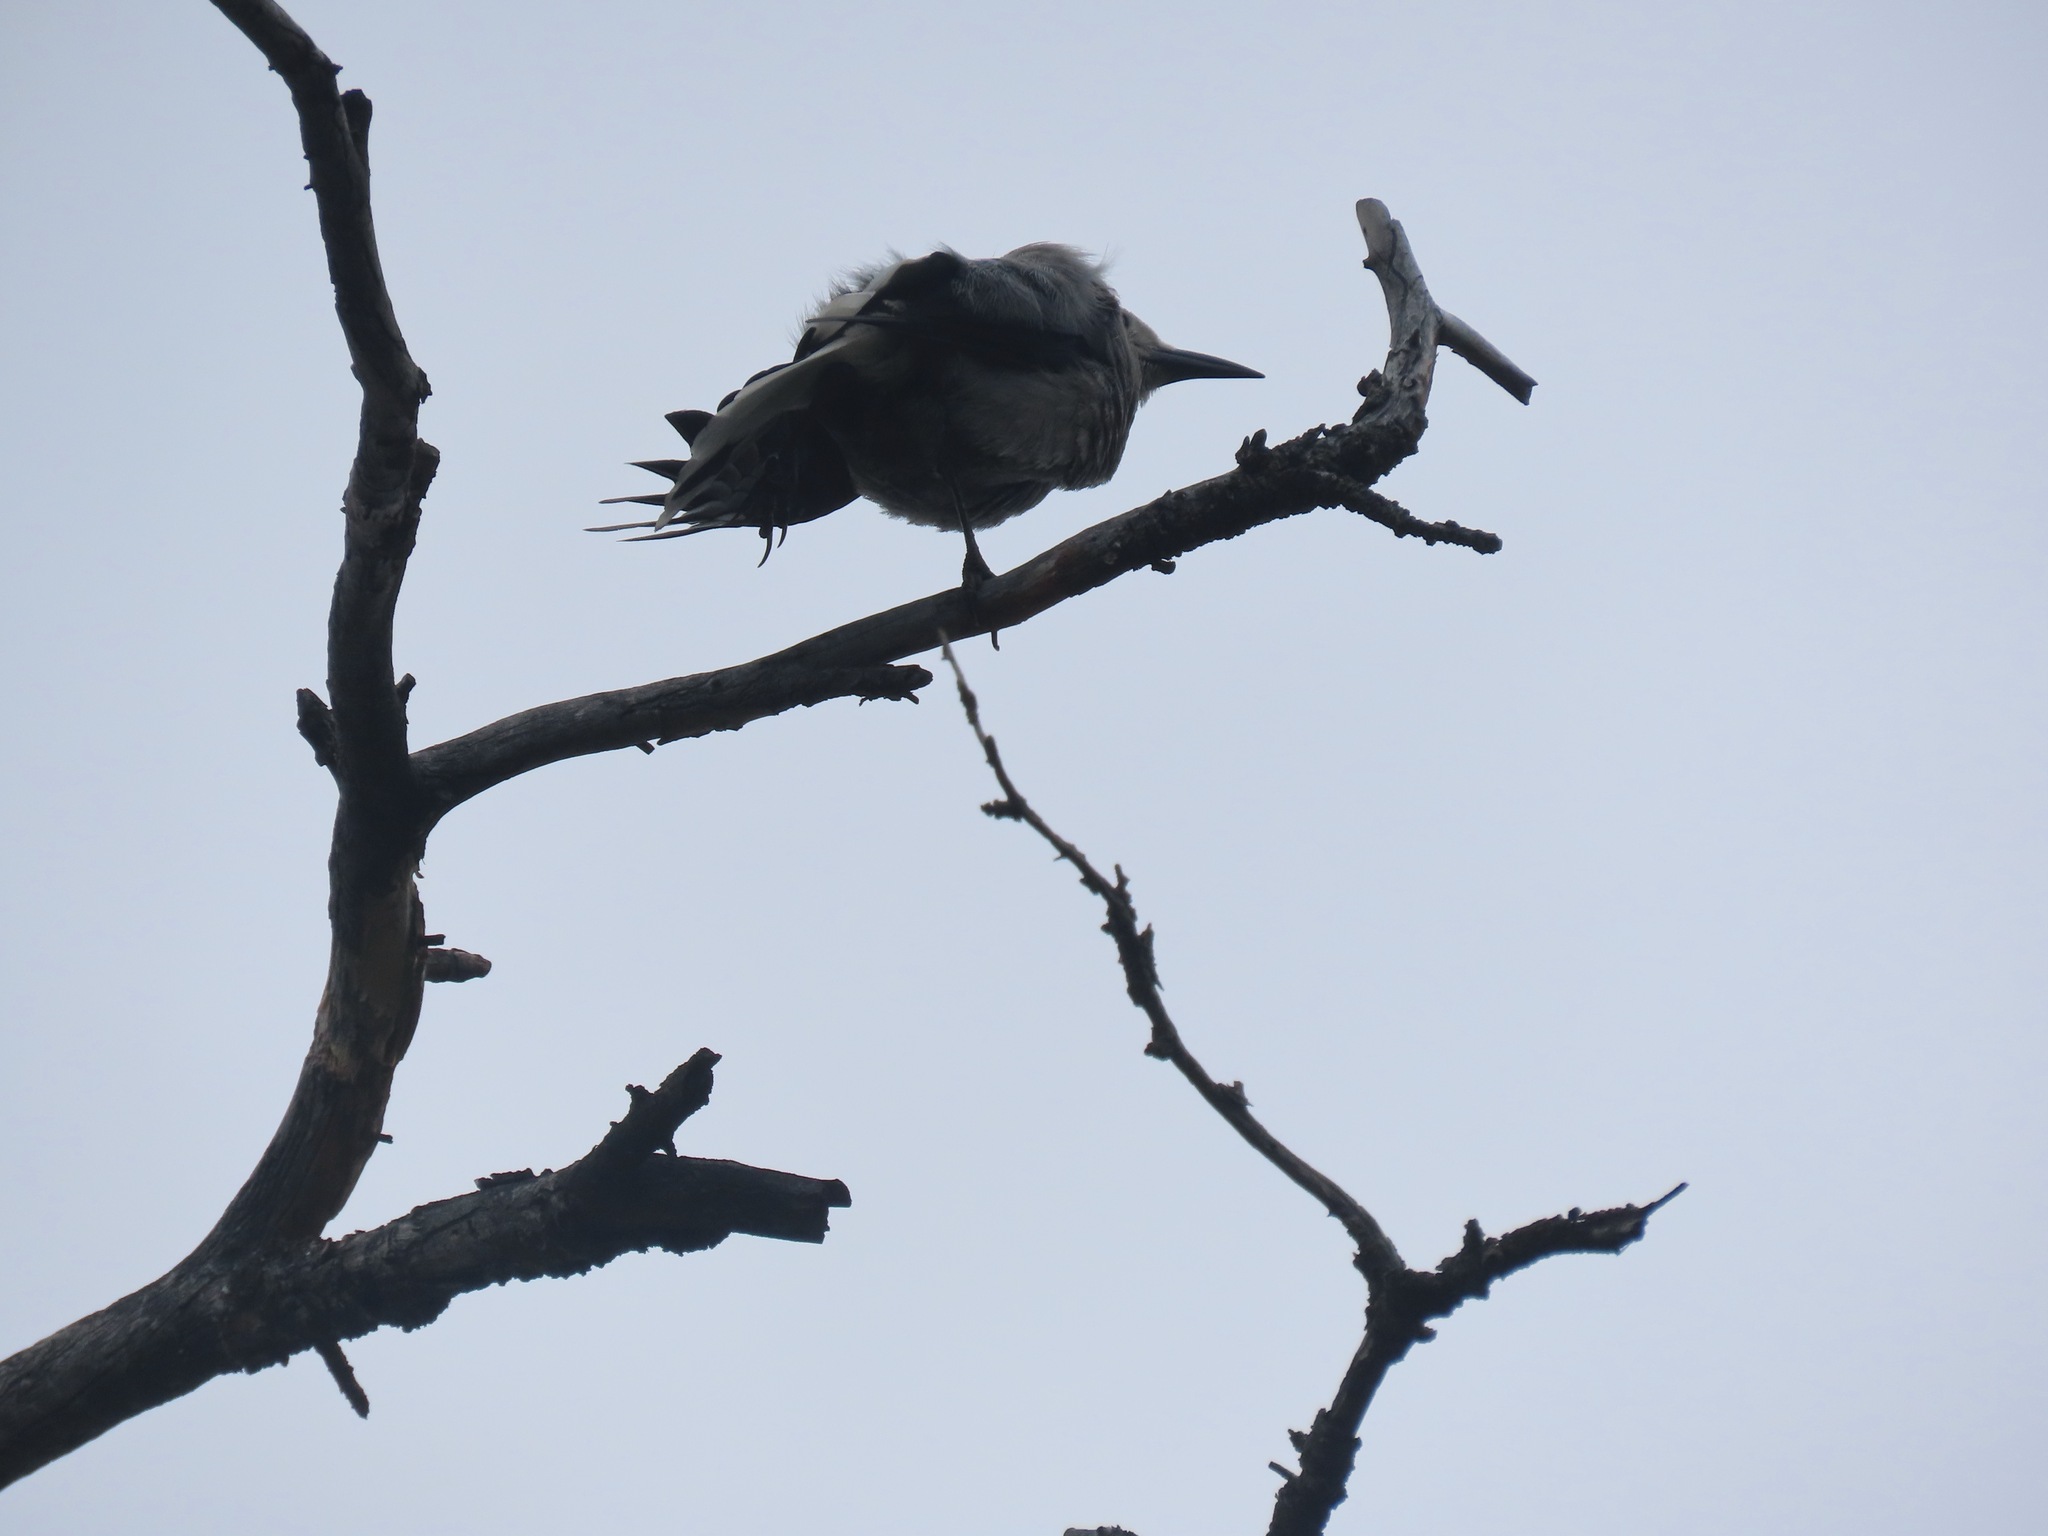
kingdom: Animalia
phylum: Chordata
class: Aves
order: Passeriformes
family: Corvidae
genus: Nucifraga
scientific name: Nucifraga columbiana
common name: Clark's nutcracker
